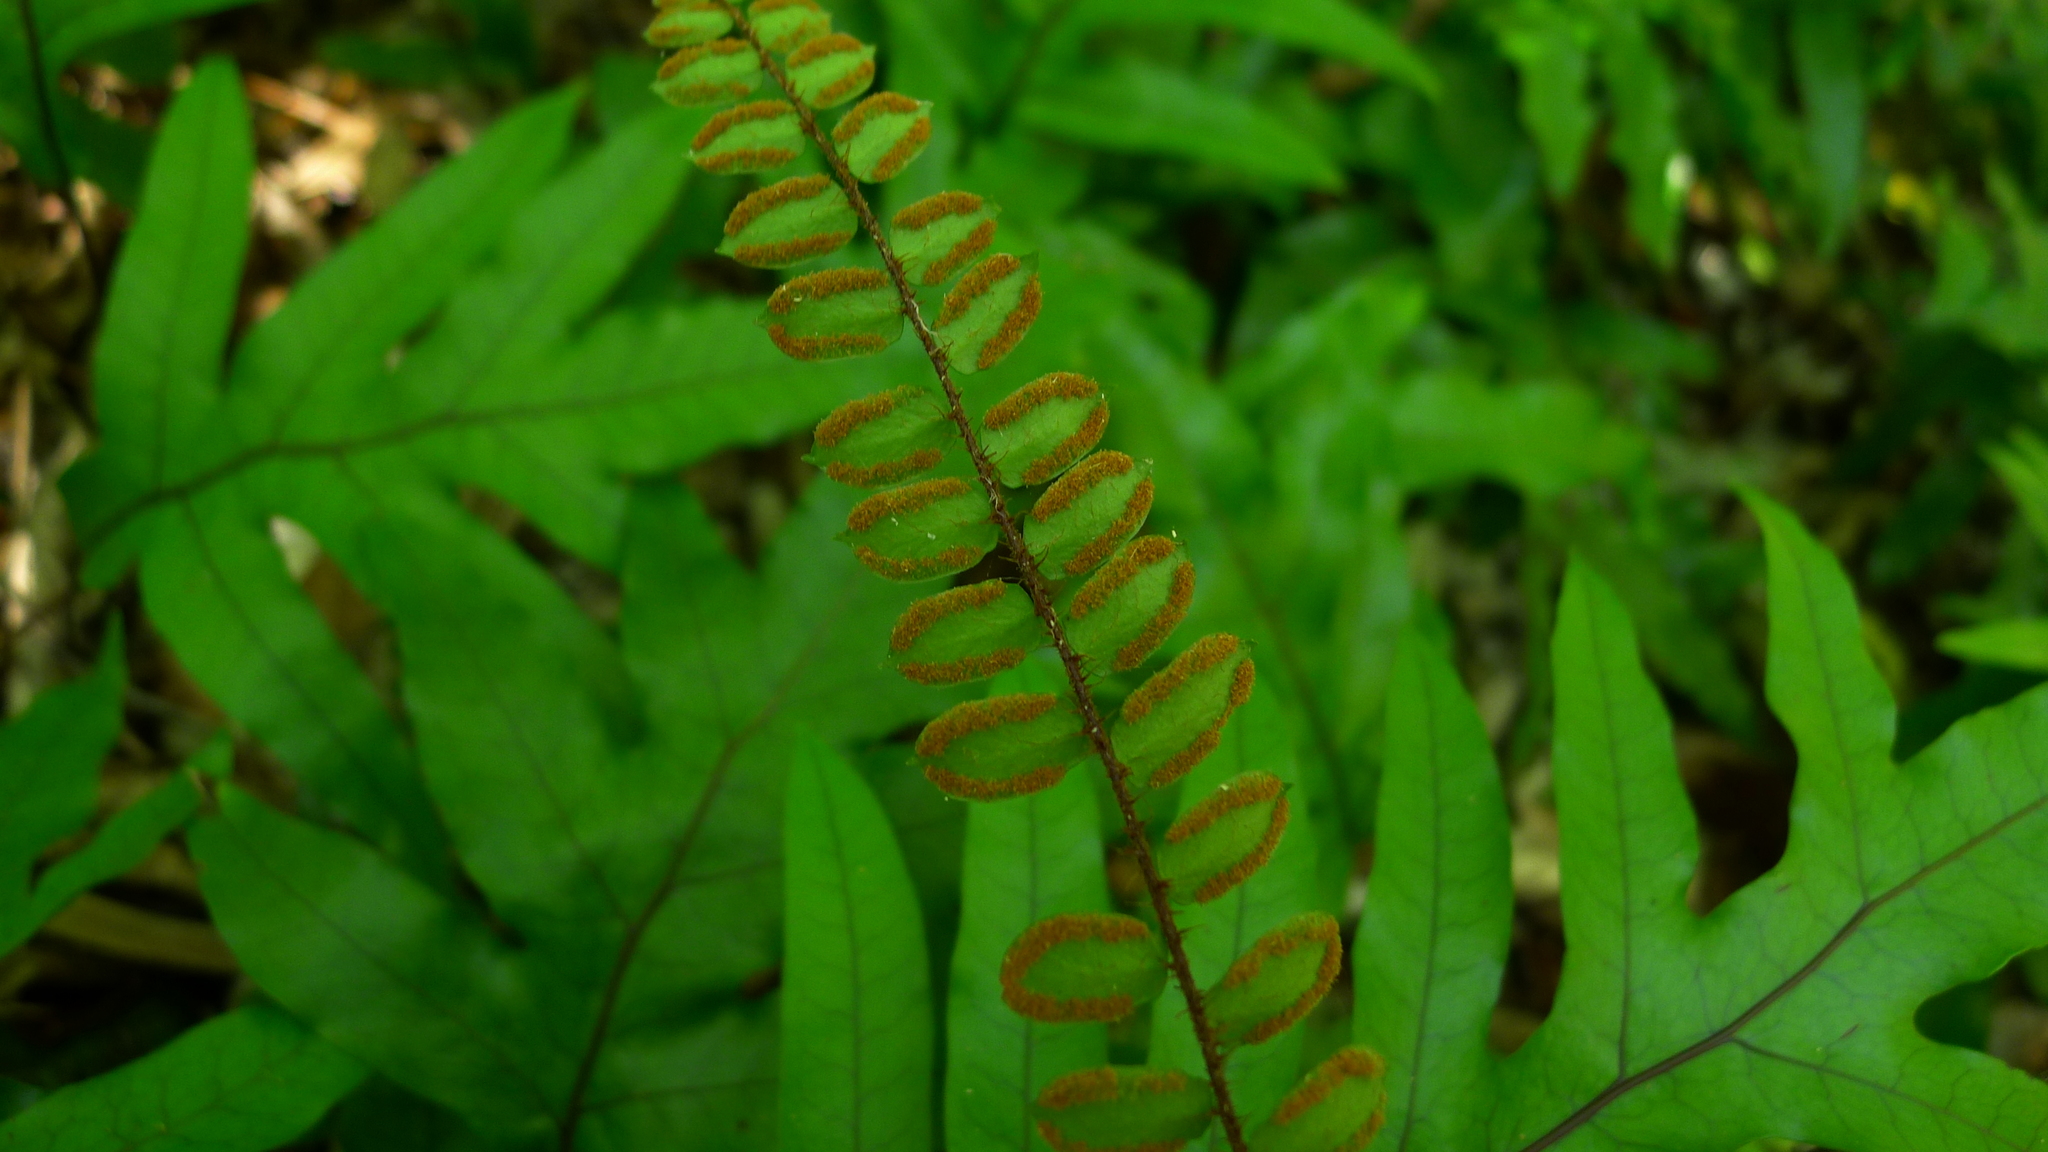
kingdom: Plantae
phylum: Tracheophyta
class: Polypodiopsida
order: Polypodiales
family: Pteridaceae
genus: Pellaea
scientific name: Pellaea rotundifolia
